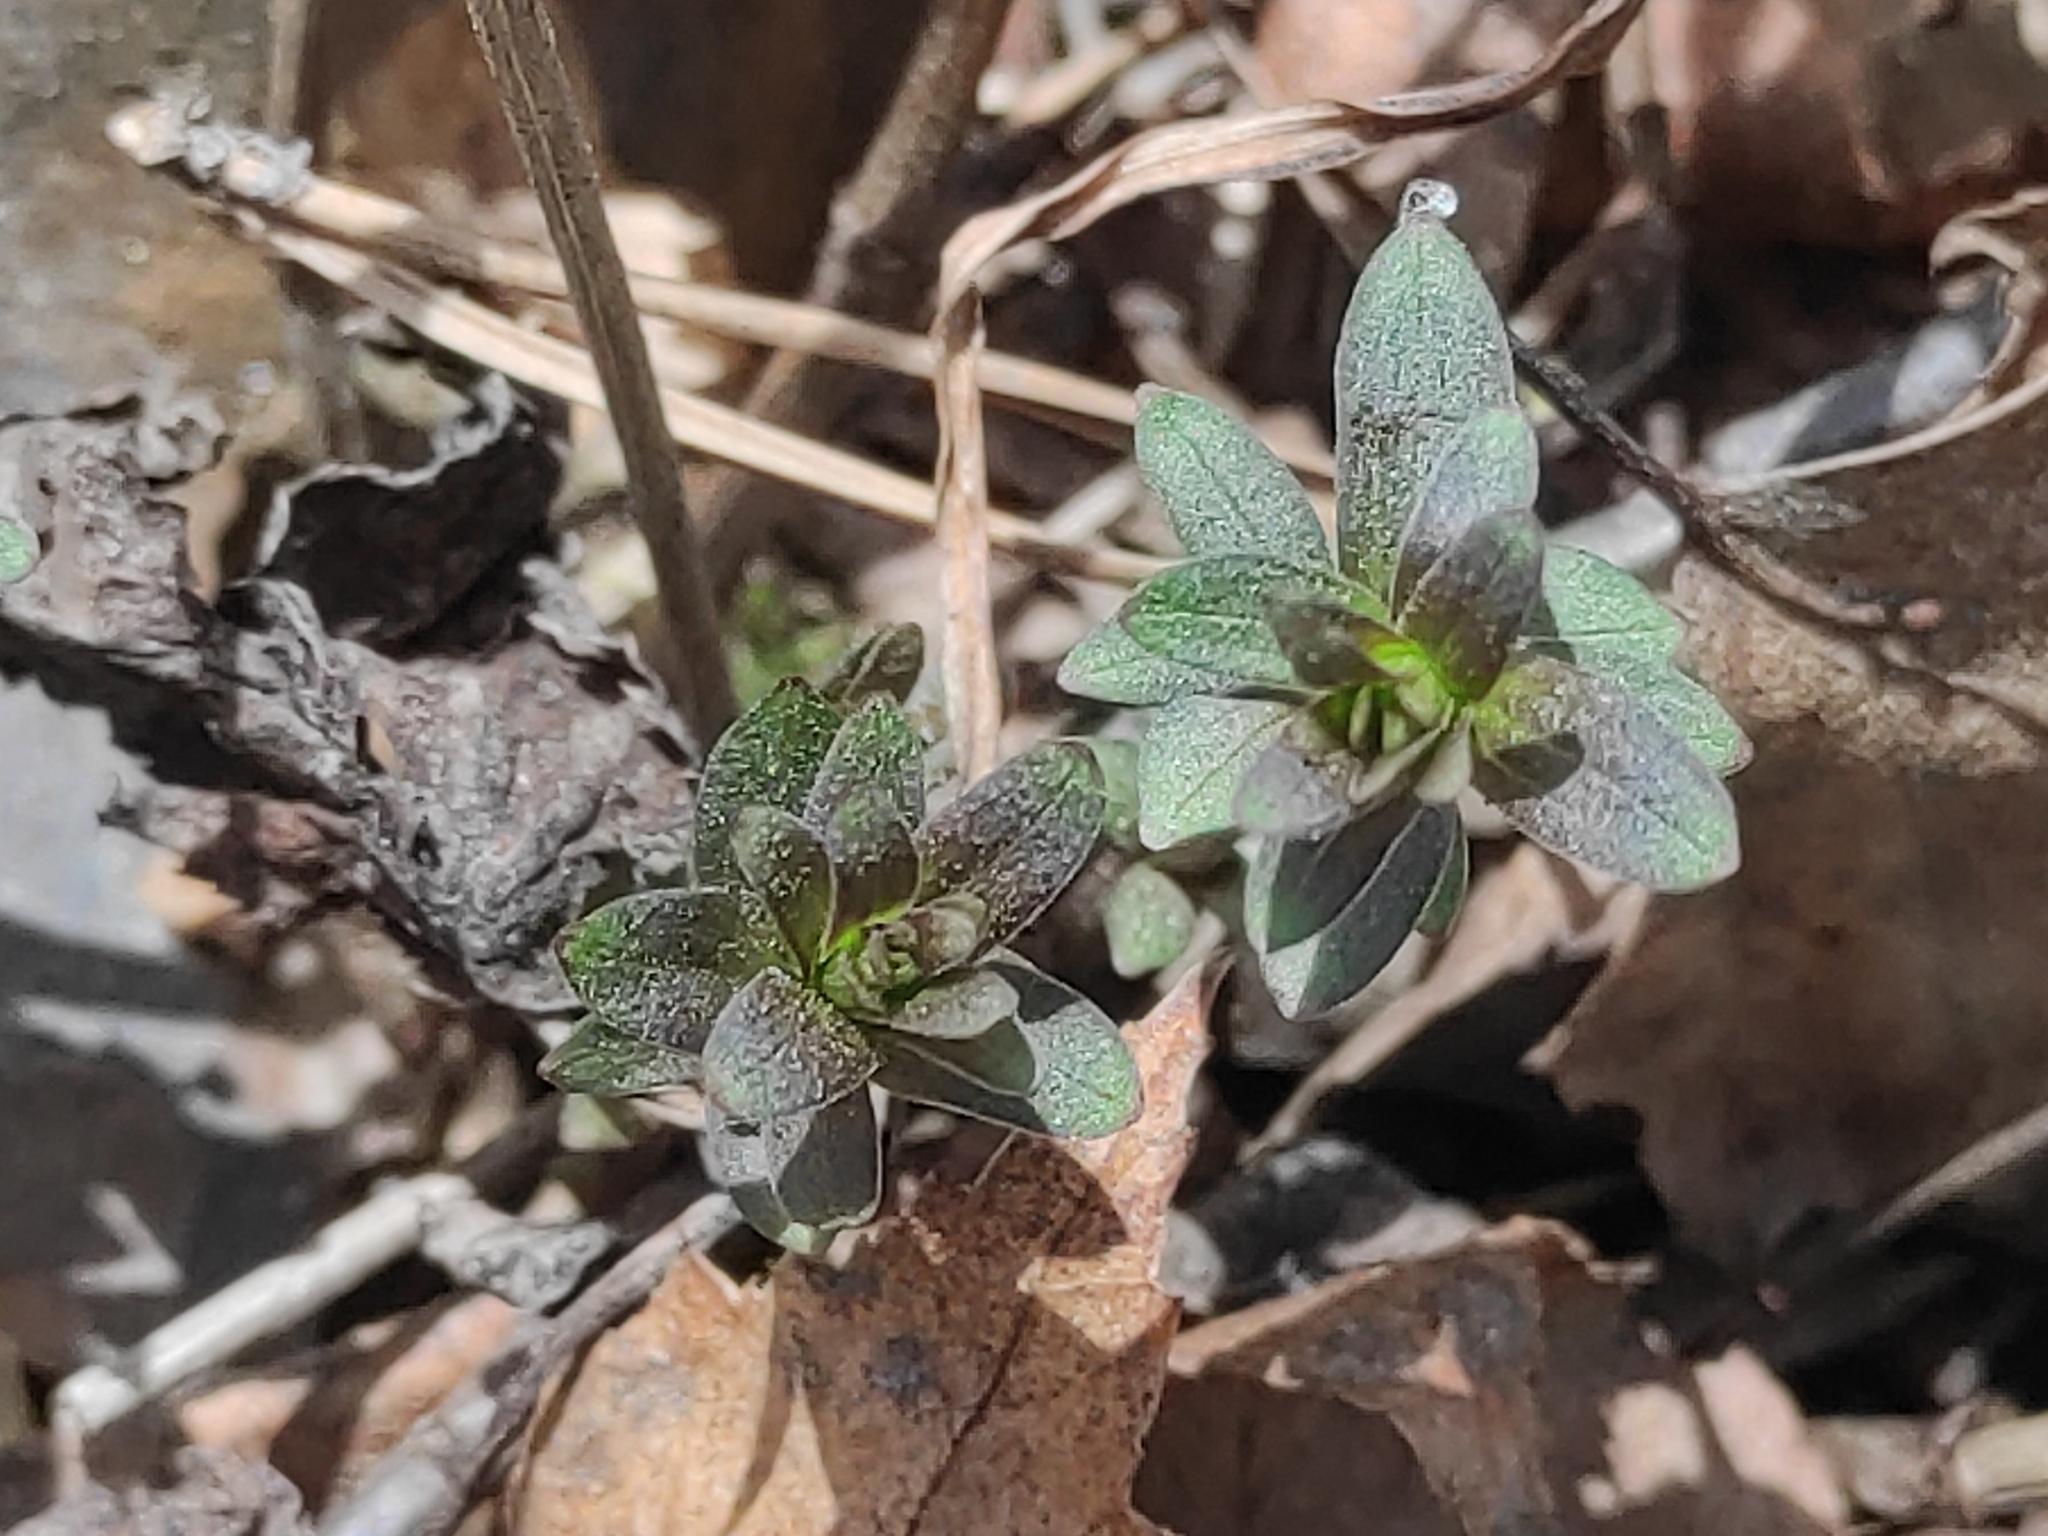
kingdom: Plantae
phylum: Tracheophyta
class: Magnoliopsida
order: Gentianales
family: Rubiaceae
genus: Galium
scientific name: Galium boreale
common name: Northern bedstraw
